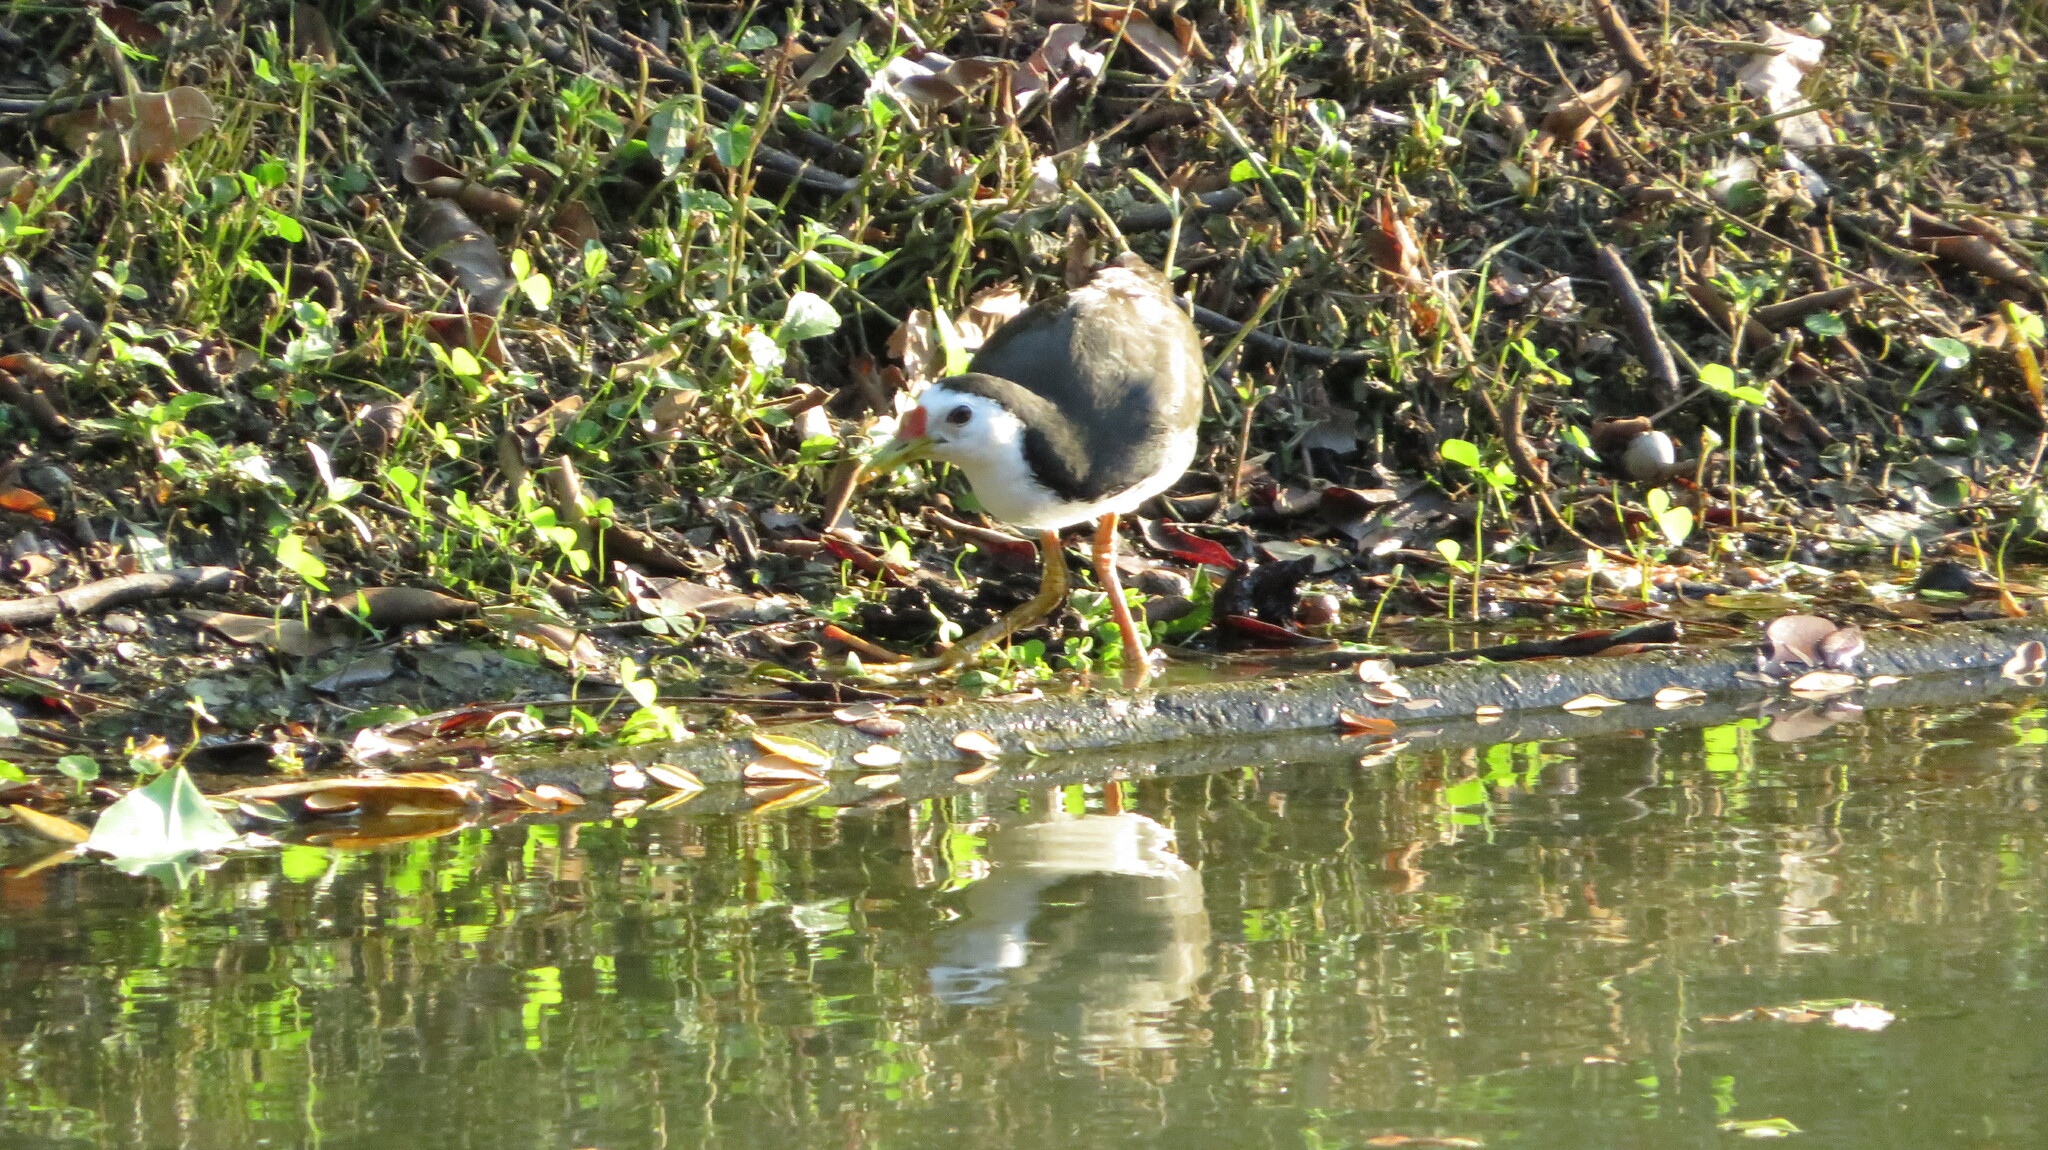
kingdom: Animalia
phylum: Chordata
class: Aves
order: Gruiformes
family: Rallidae
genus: Amaurornis
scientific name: Amaurornis phoenicurus
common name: White-breasted waterhen
